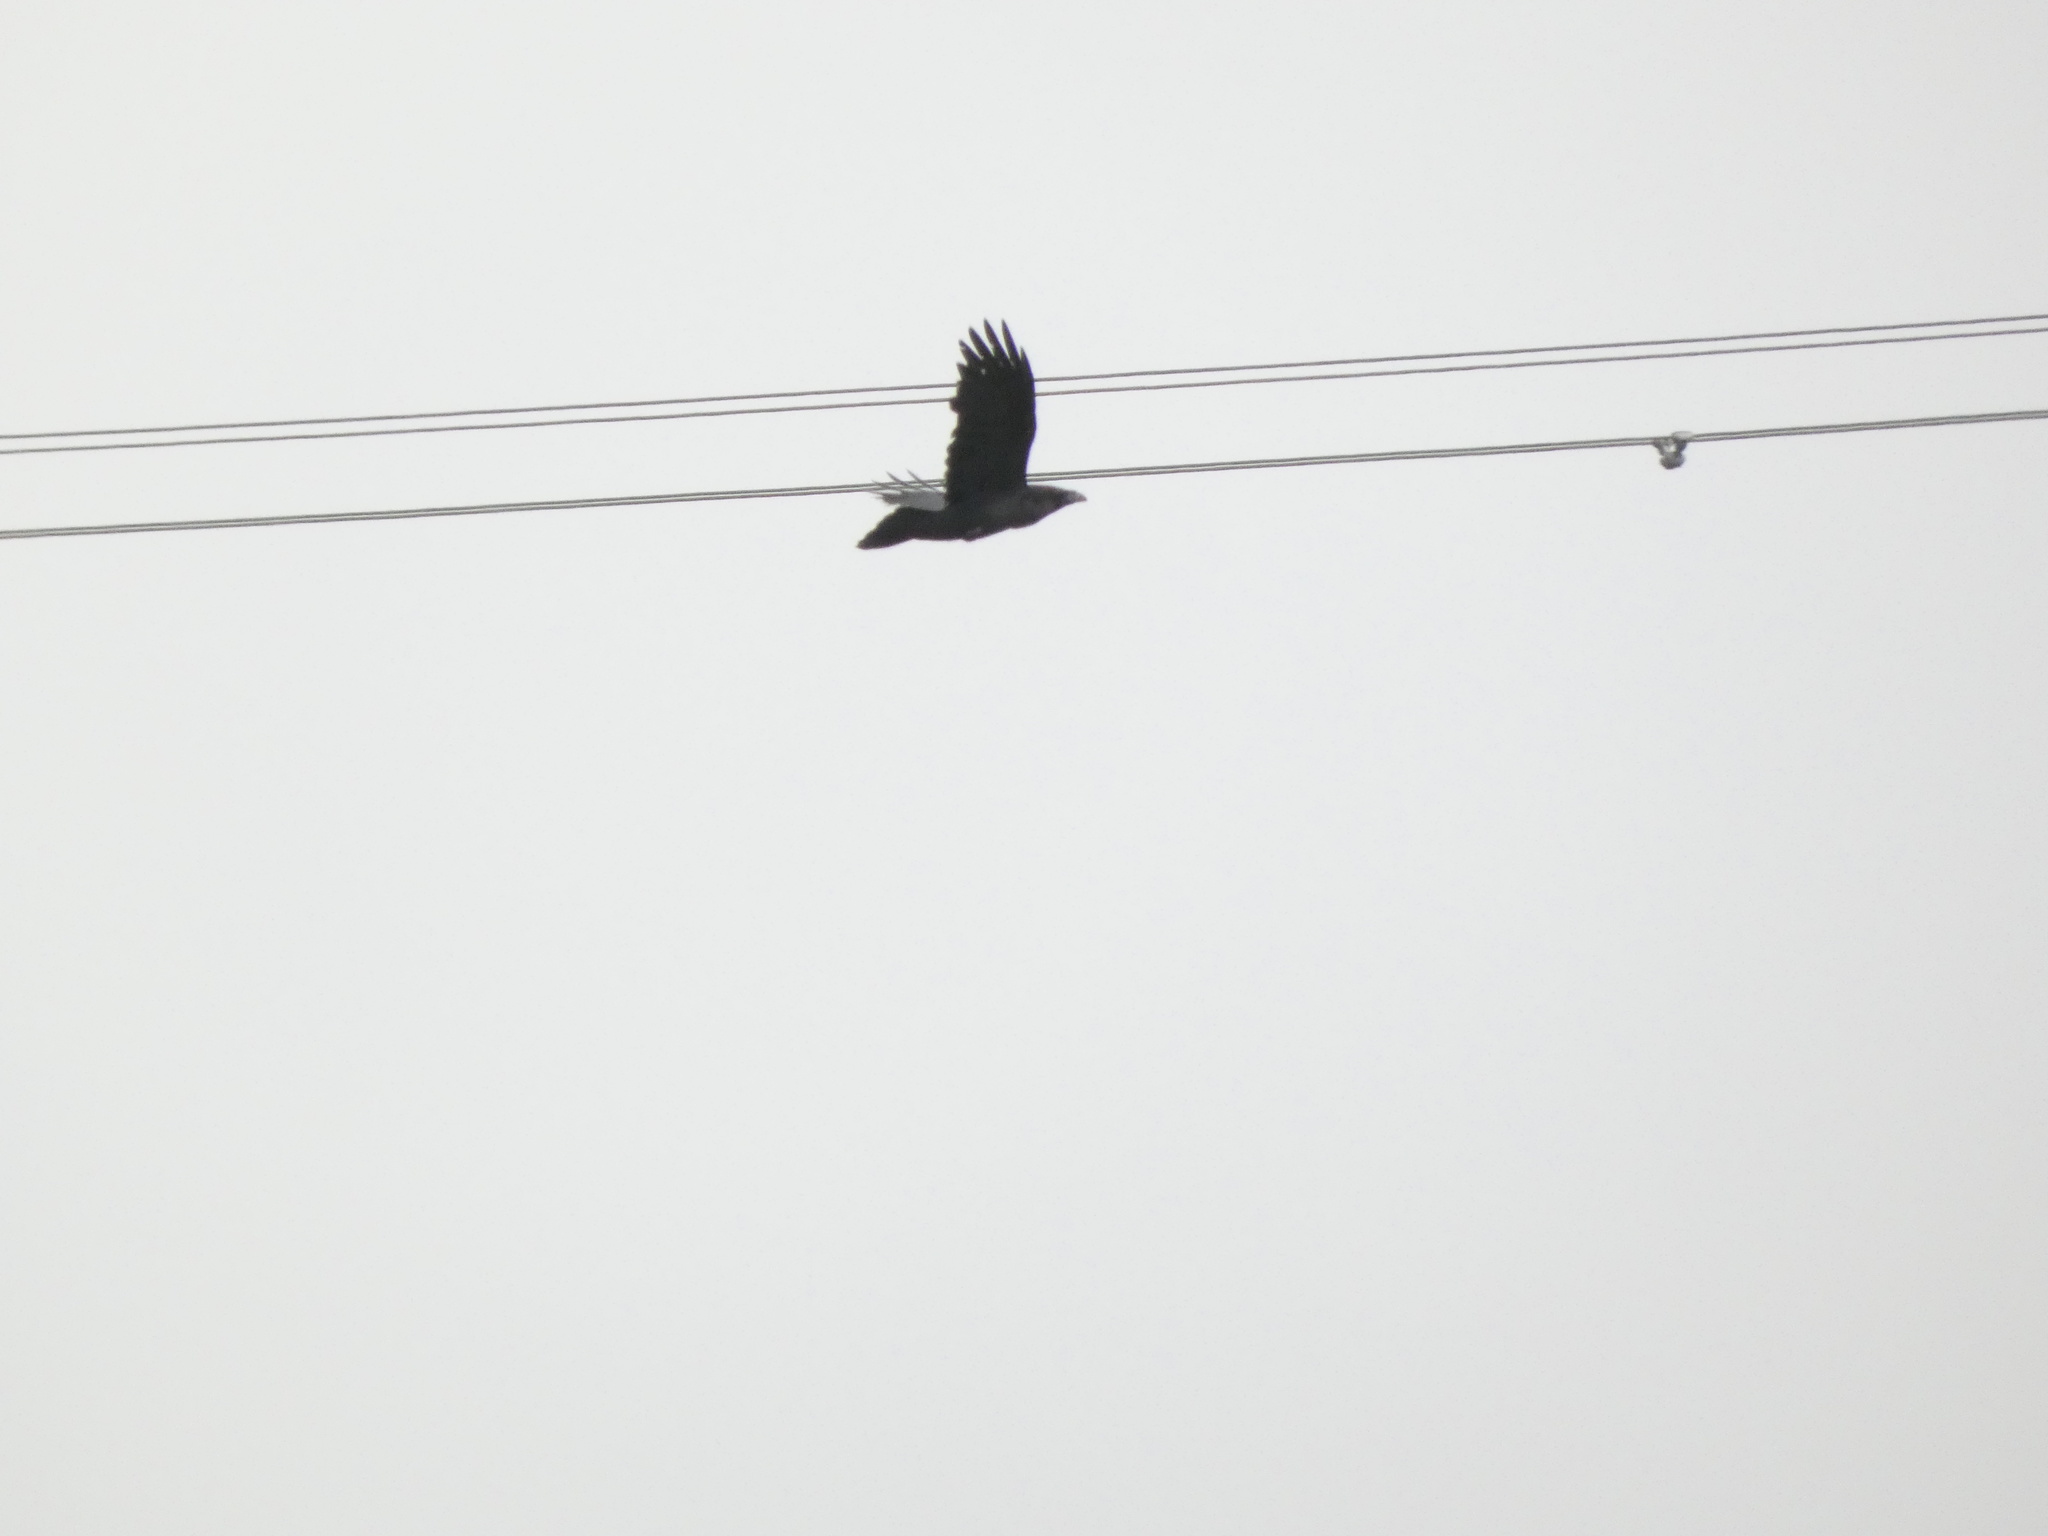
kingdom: Animalia
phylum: Chordata
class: Aves
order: Passeriformes
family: Corvidae
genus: Corvus
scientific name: Corvus corax
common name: Common raven
